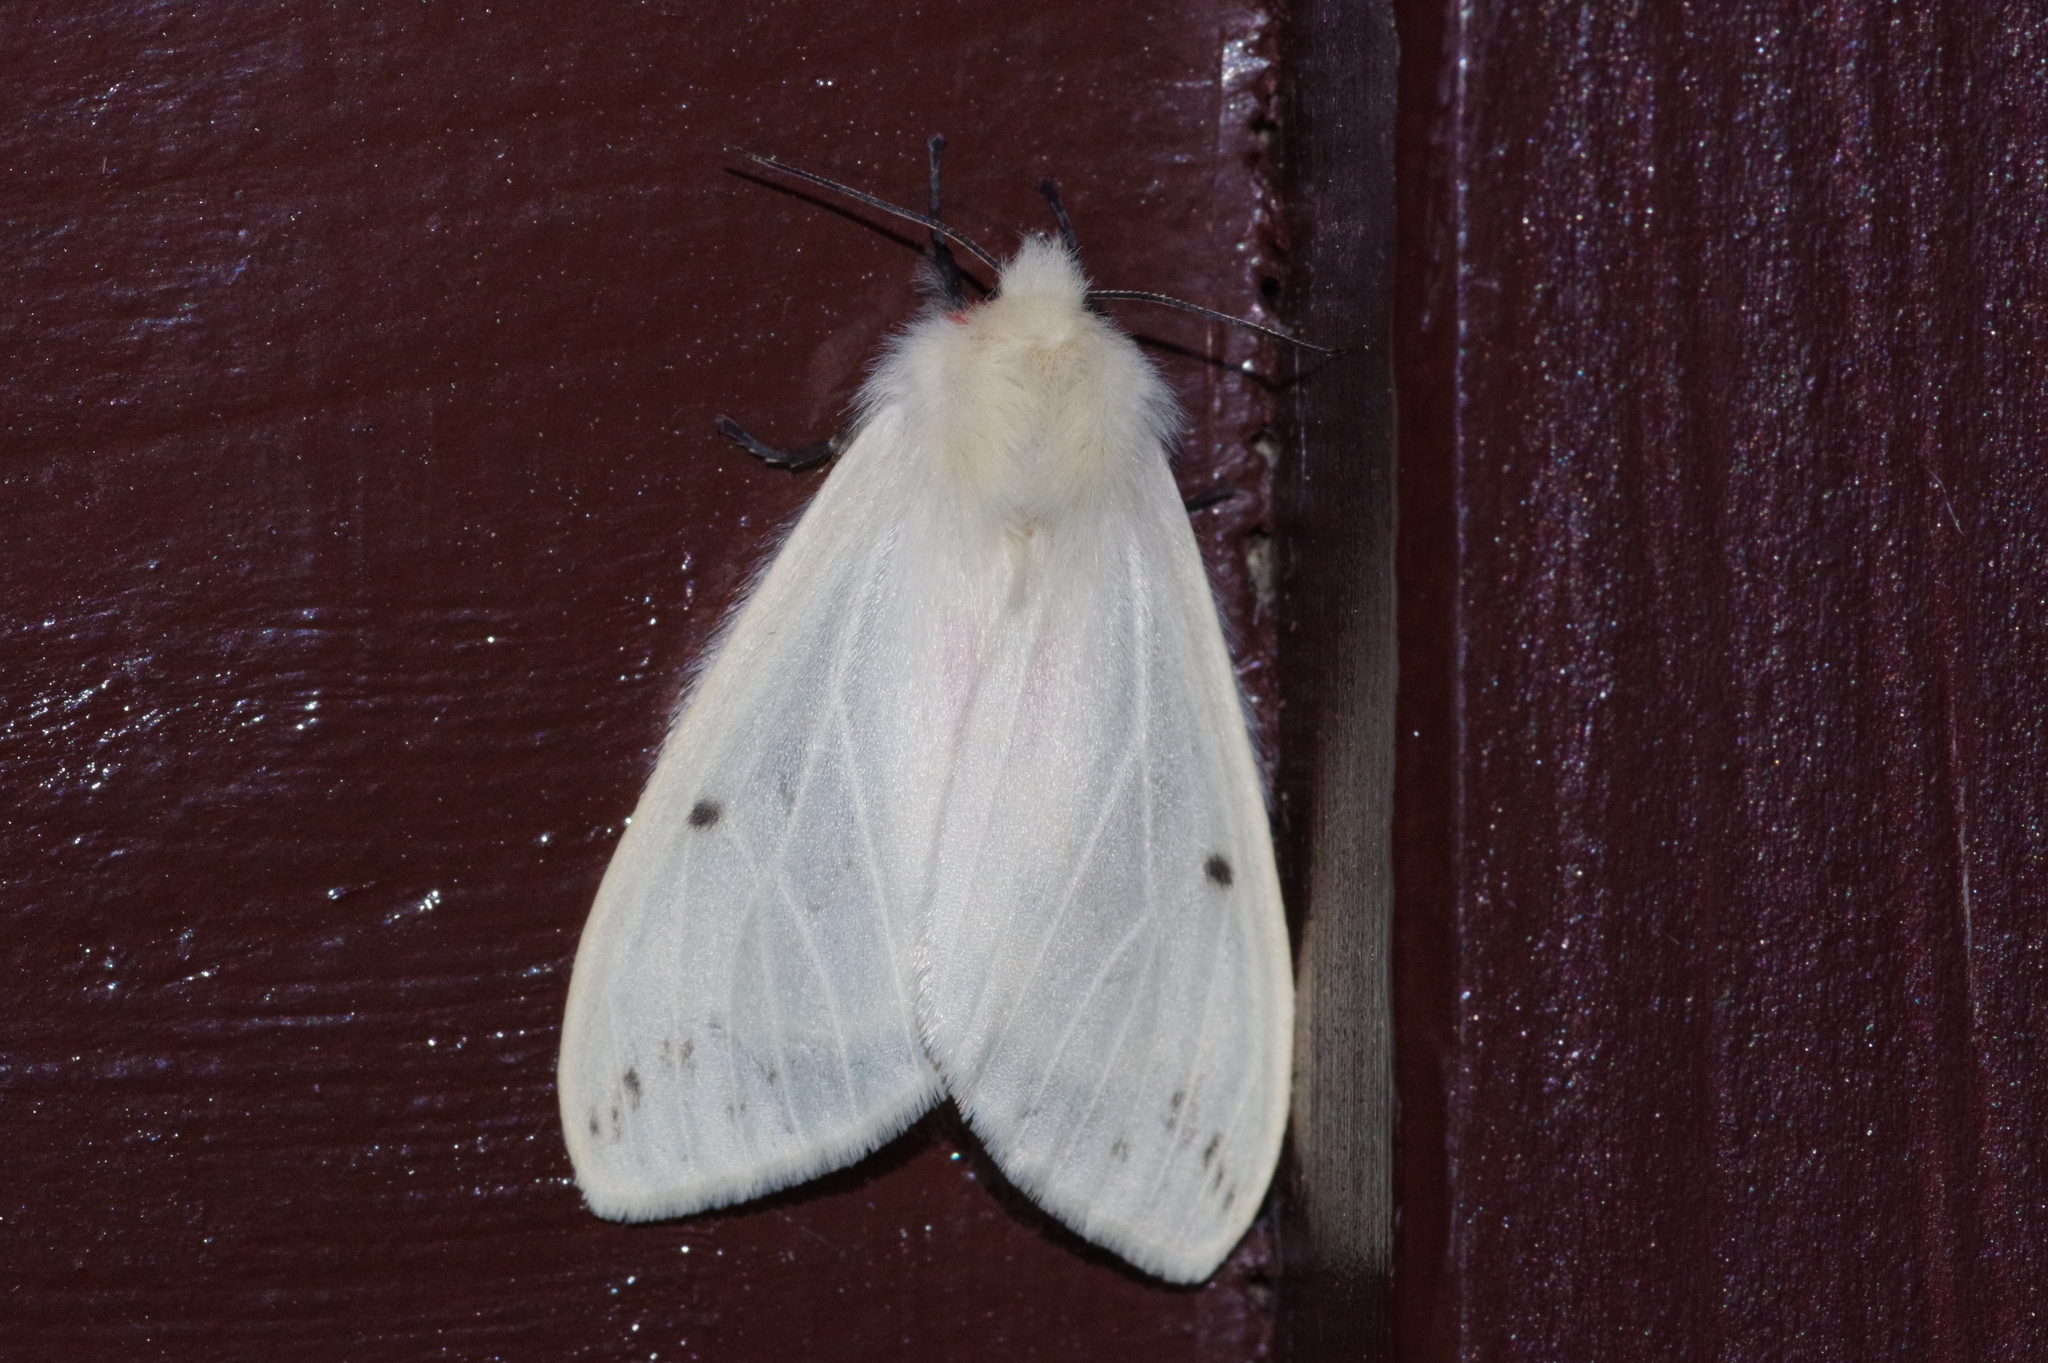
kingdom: Animalia
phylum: Arthropoda
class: Insecta
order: Lepidoptera
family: Erebidae
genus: Lemyra
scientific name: Lemyra inaequalis
